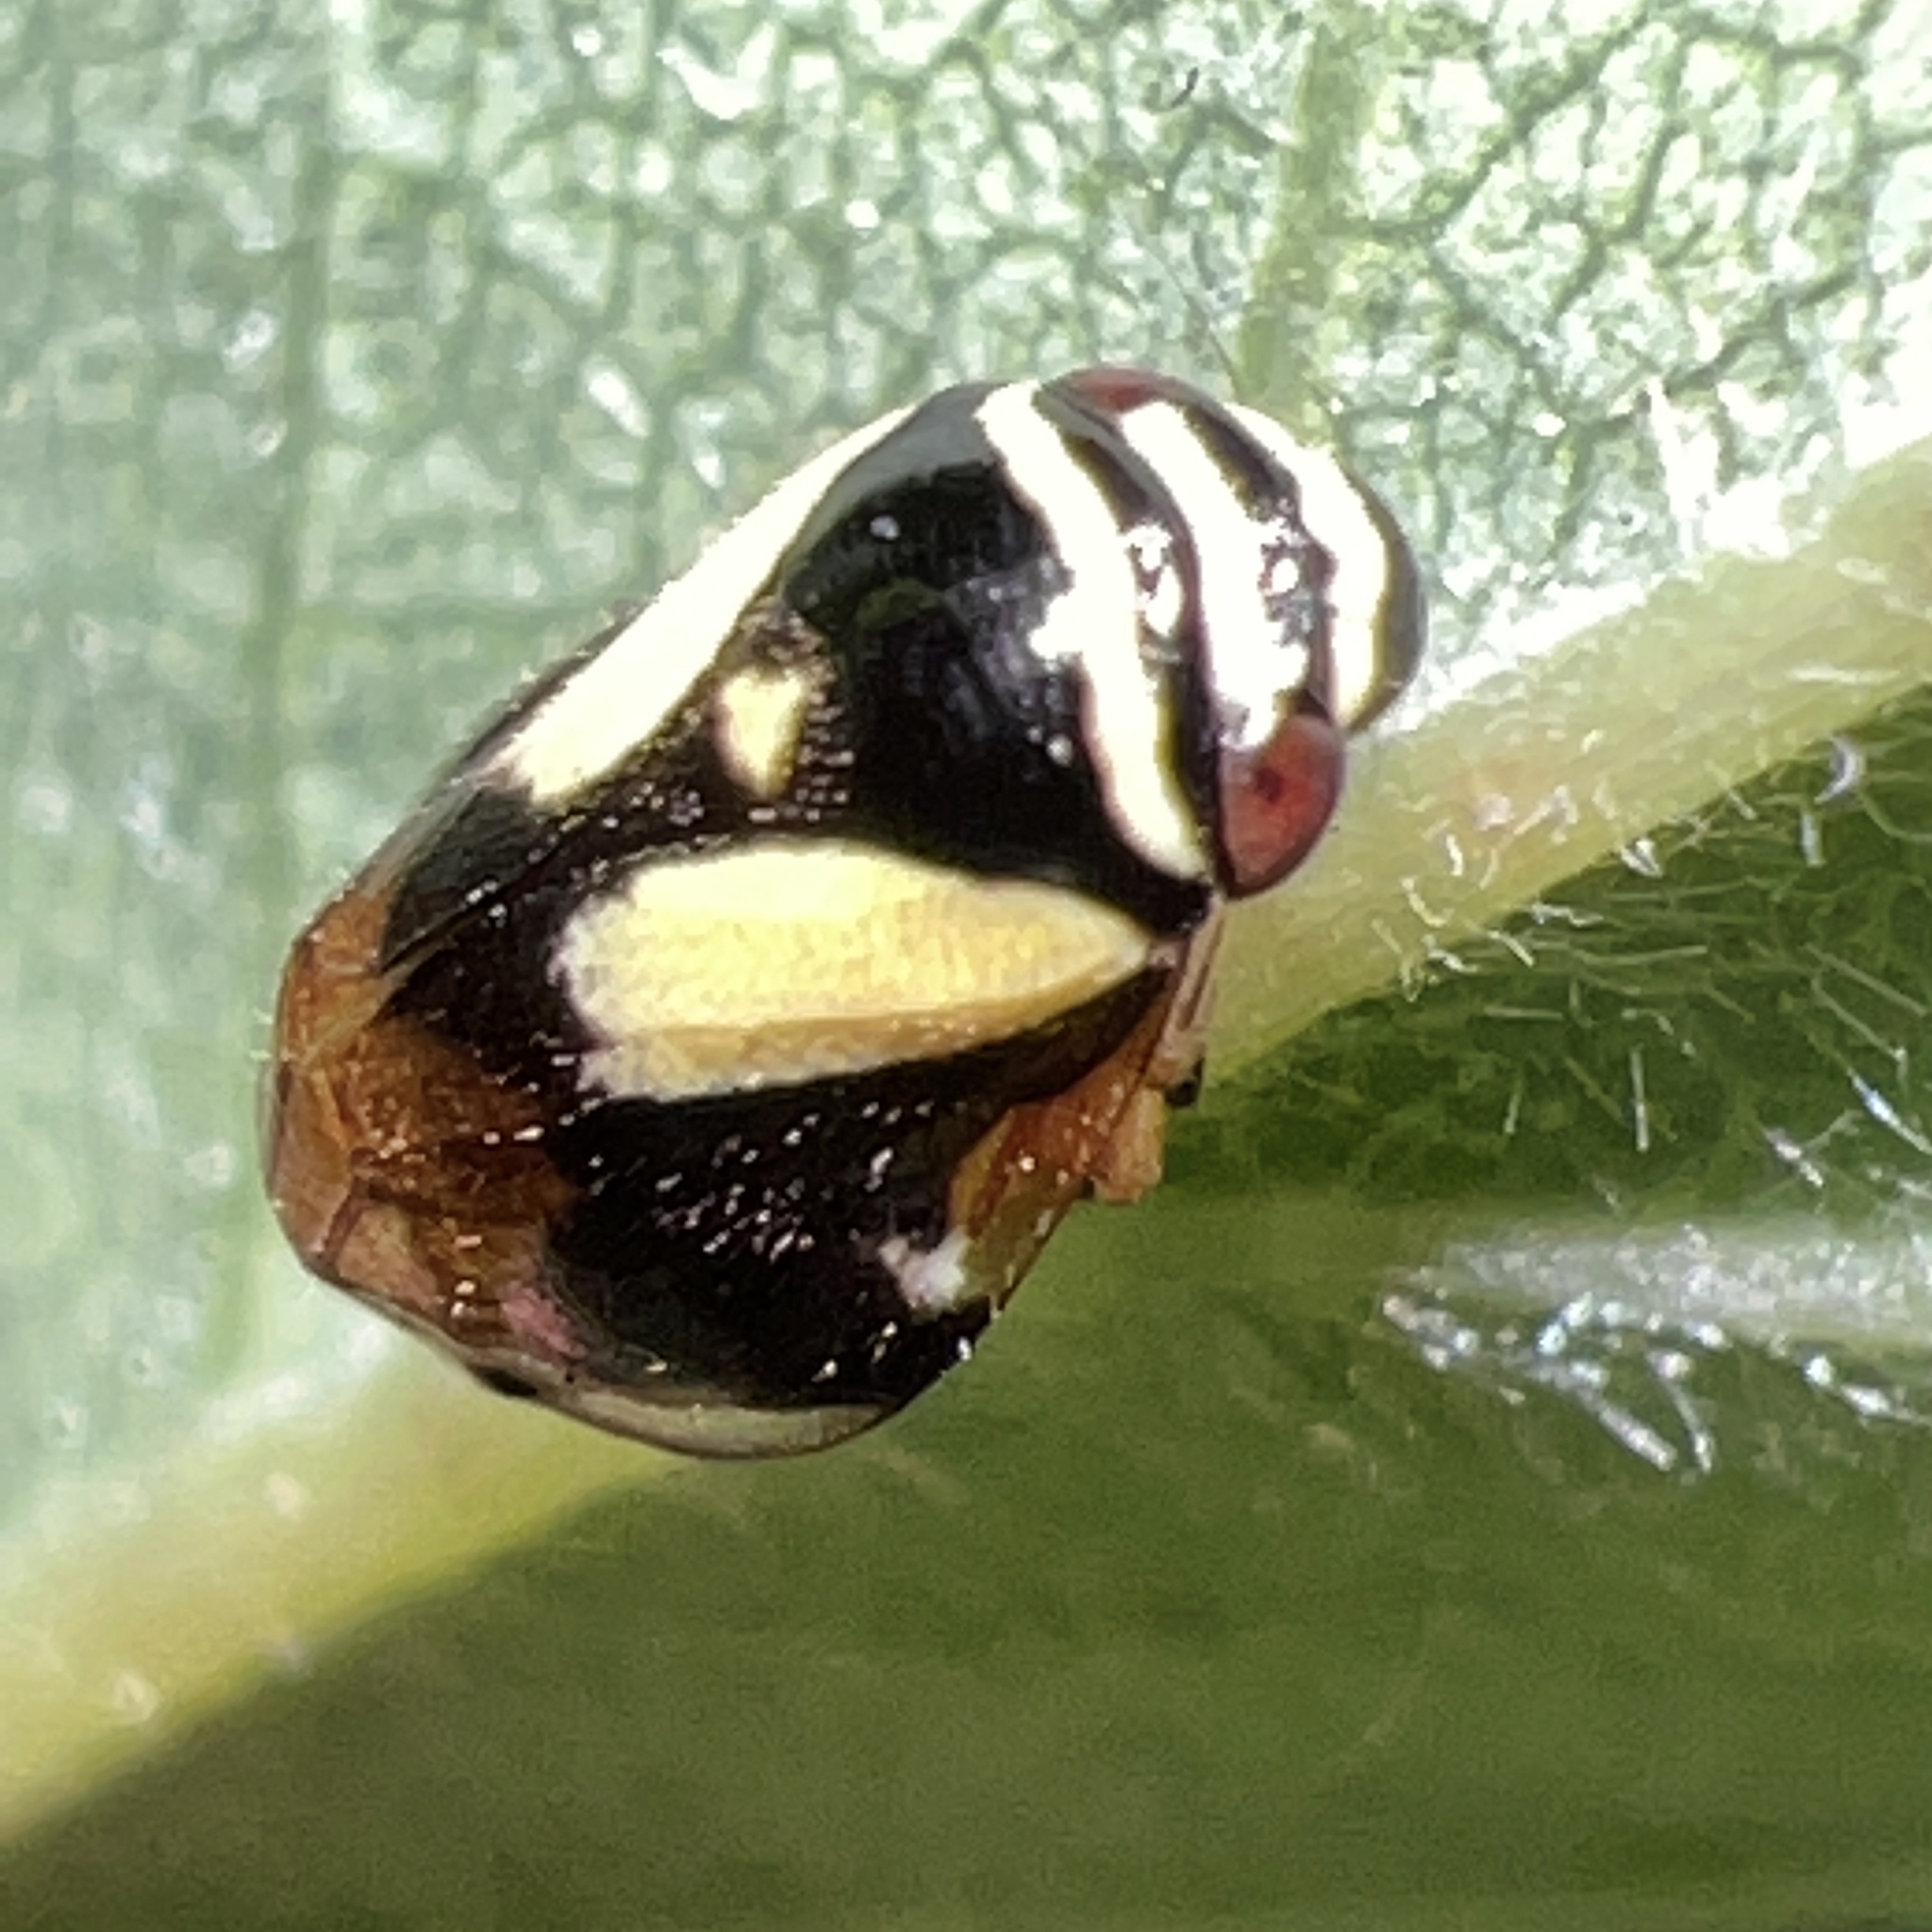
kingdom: Animalia
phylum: Arthropoda
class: Insecta
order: Hemiptera
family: Clastopteridae
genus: Clastoptera
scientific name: Clastoptera proteus
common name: Dogwood spittlebug
